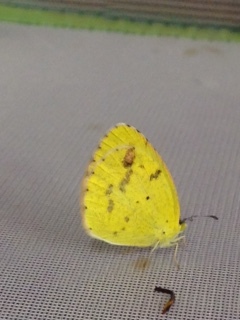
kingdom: Animalia
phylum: Arthropoda
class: Insecta
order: Lepidoptera
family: Pieridae
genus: Pyrisitia
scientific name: Pyrisitia lisa
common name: Little yellow
